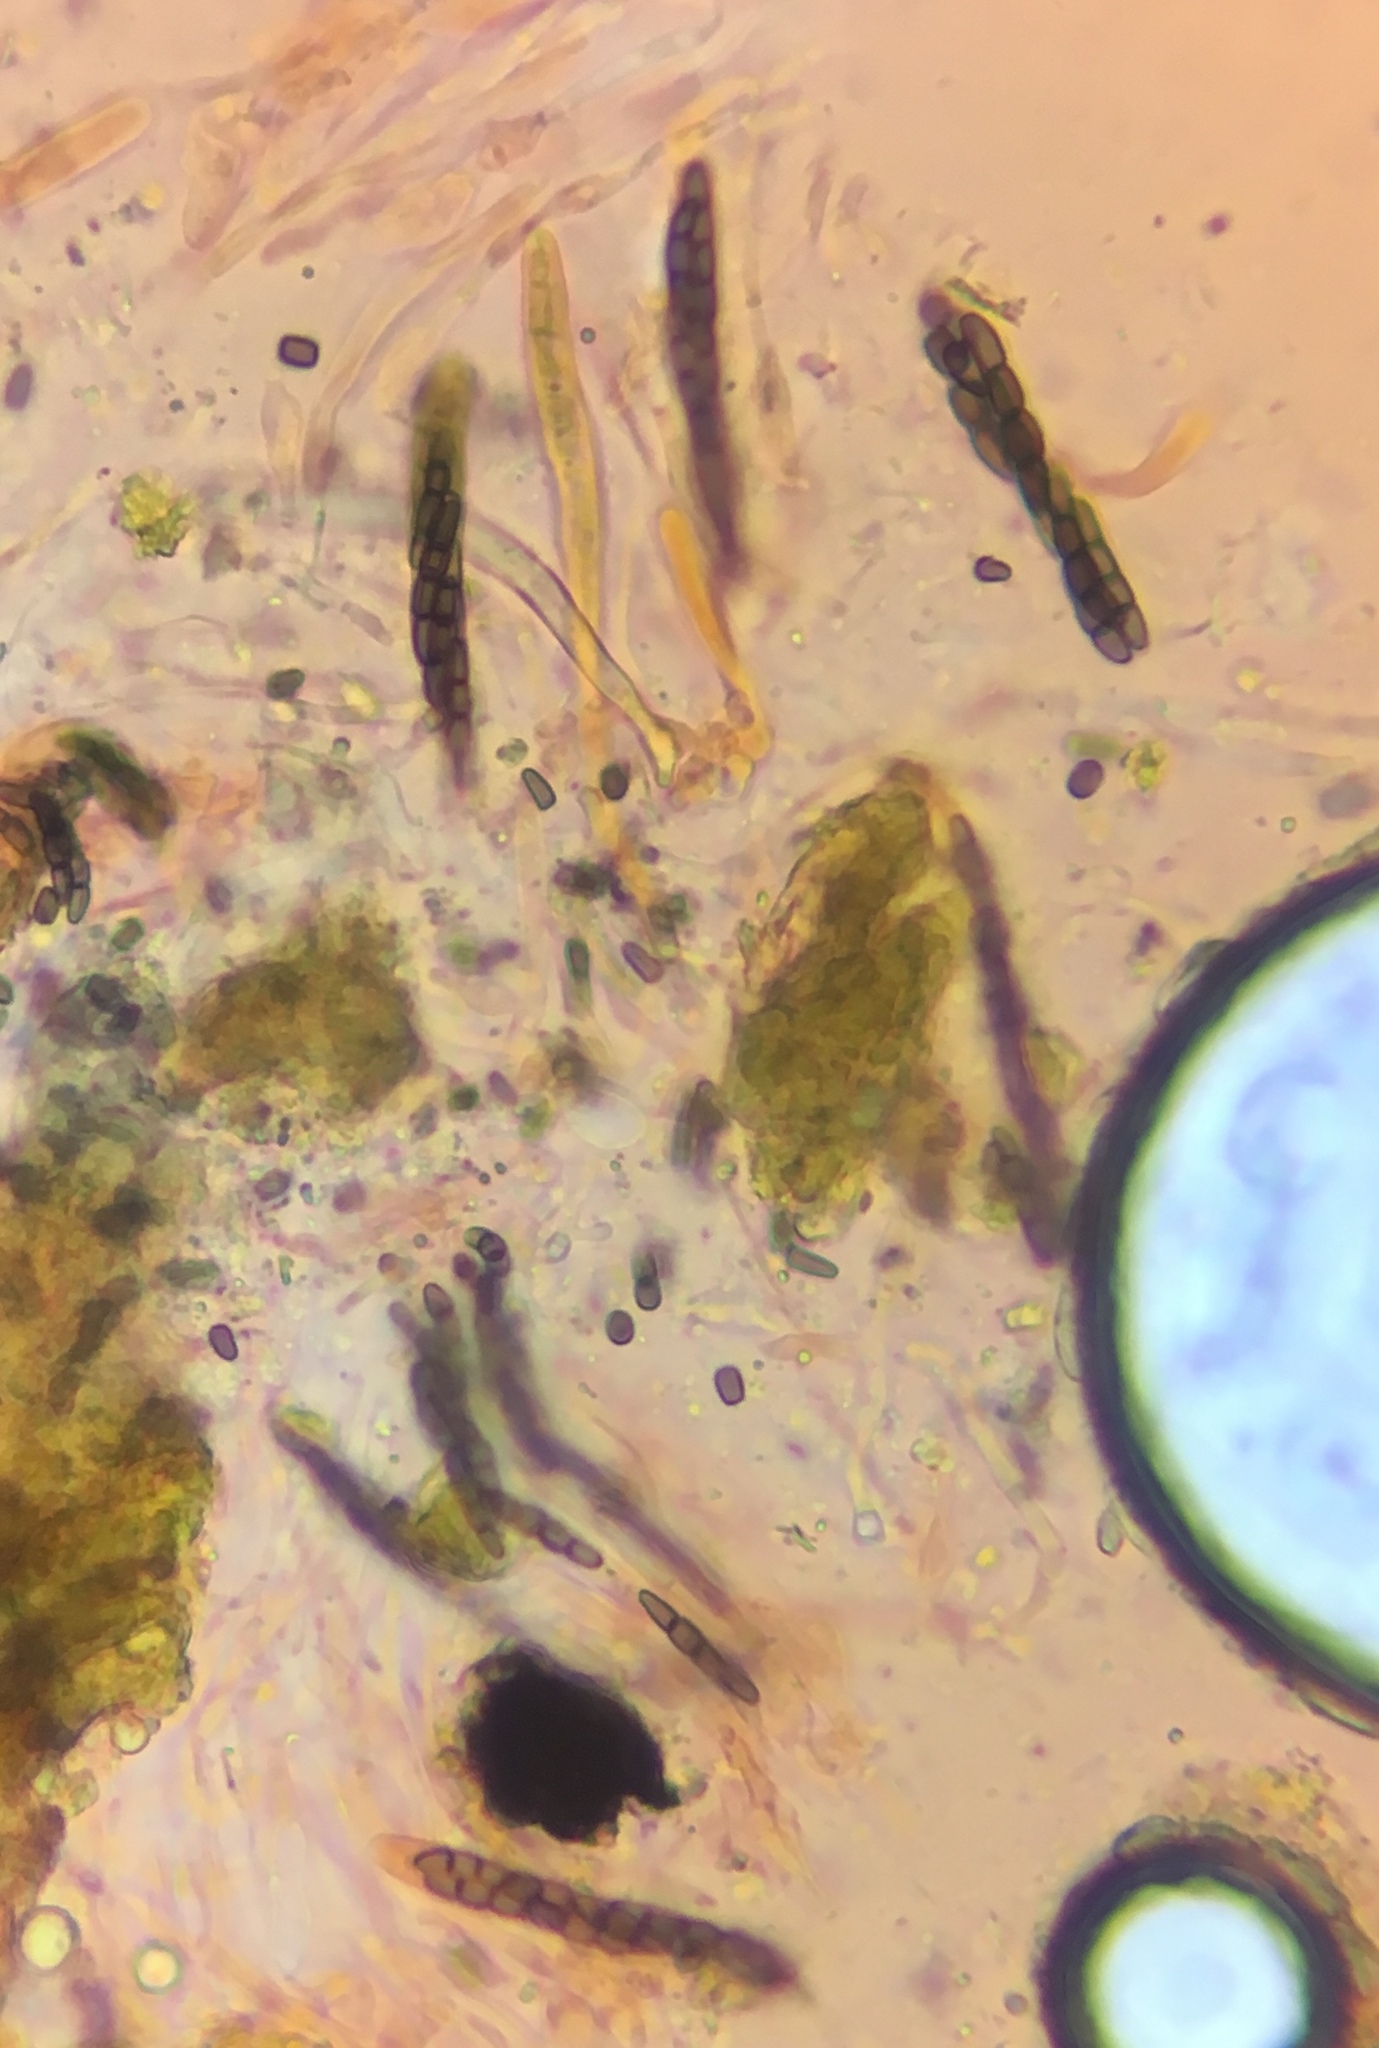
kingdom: Fungi
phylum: Ascomycota
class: Dothideomycetes
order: Pleosporales
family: Sporormiaceae
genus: Sporormiella
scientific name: Sporormiella minutisperma
